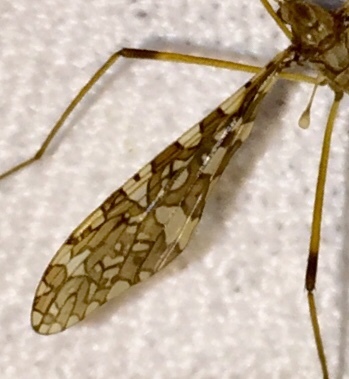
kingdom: Animalia
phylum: Arthropoda
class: Insecta
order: Diptera
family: Limoniidae
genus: Epiphragma
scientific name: Epiphragma fasciapenne
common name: Band-winged crane fly
